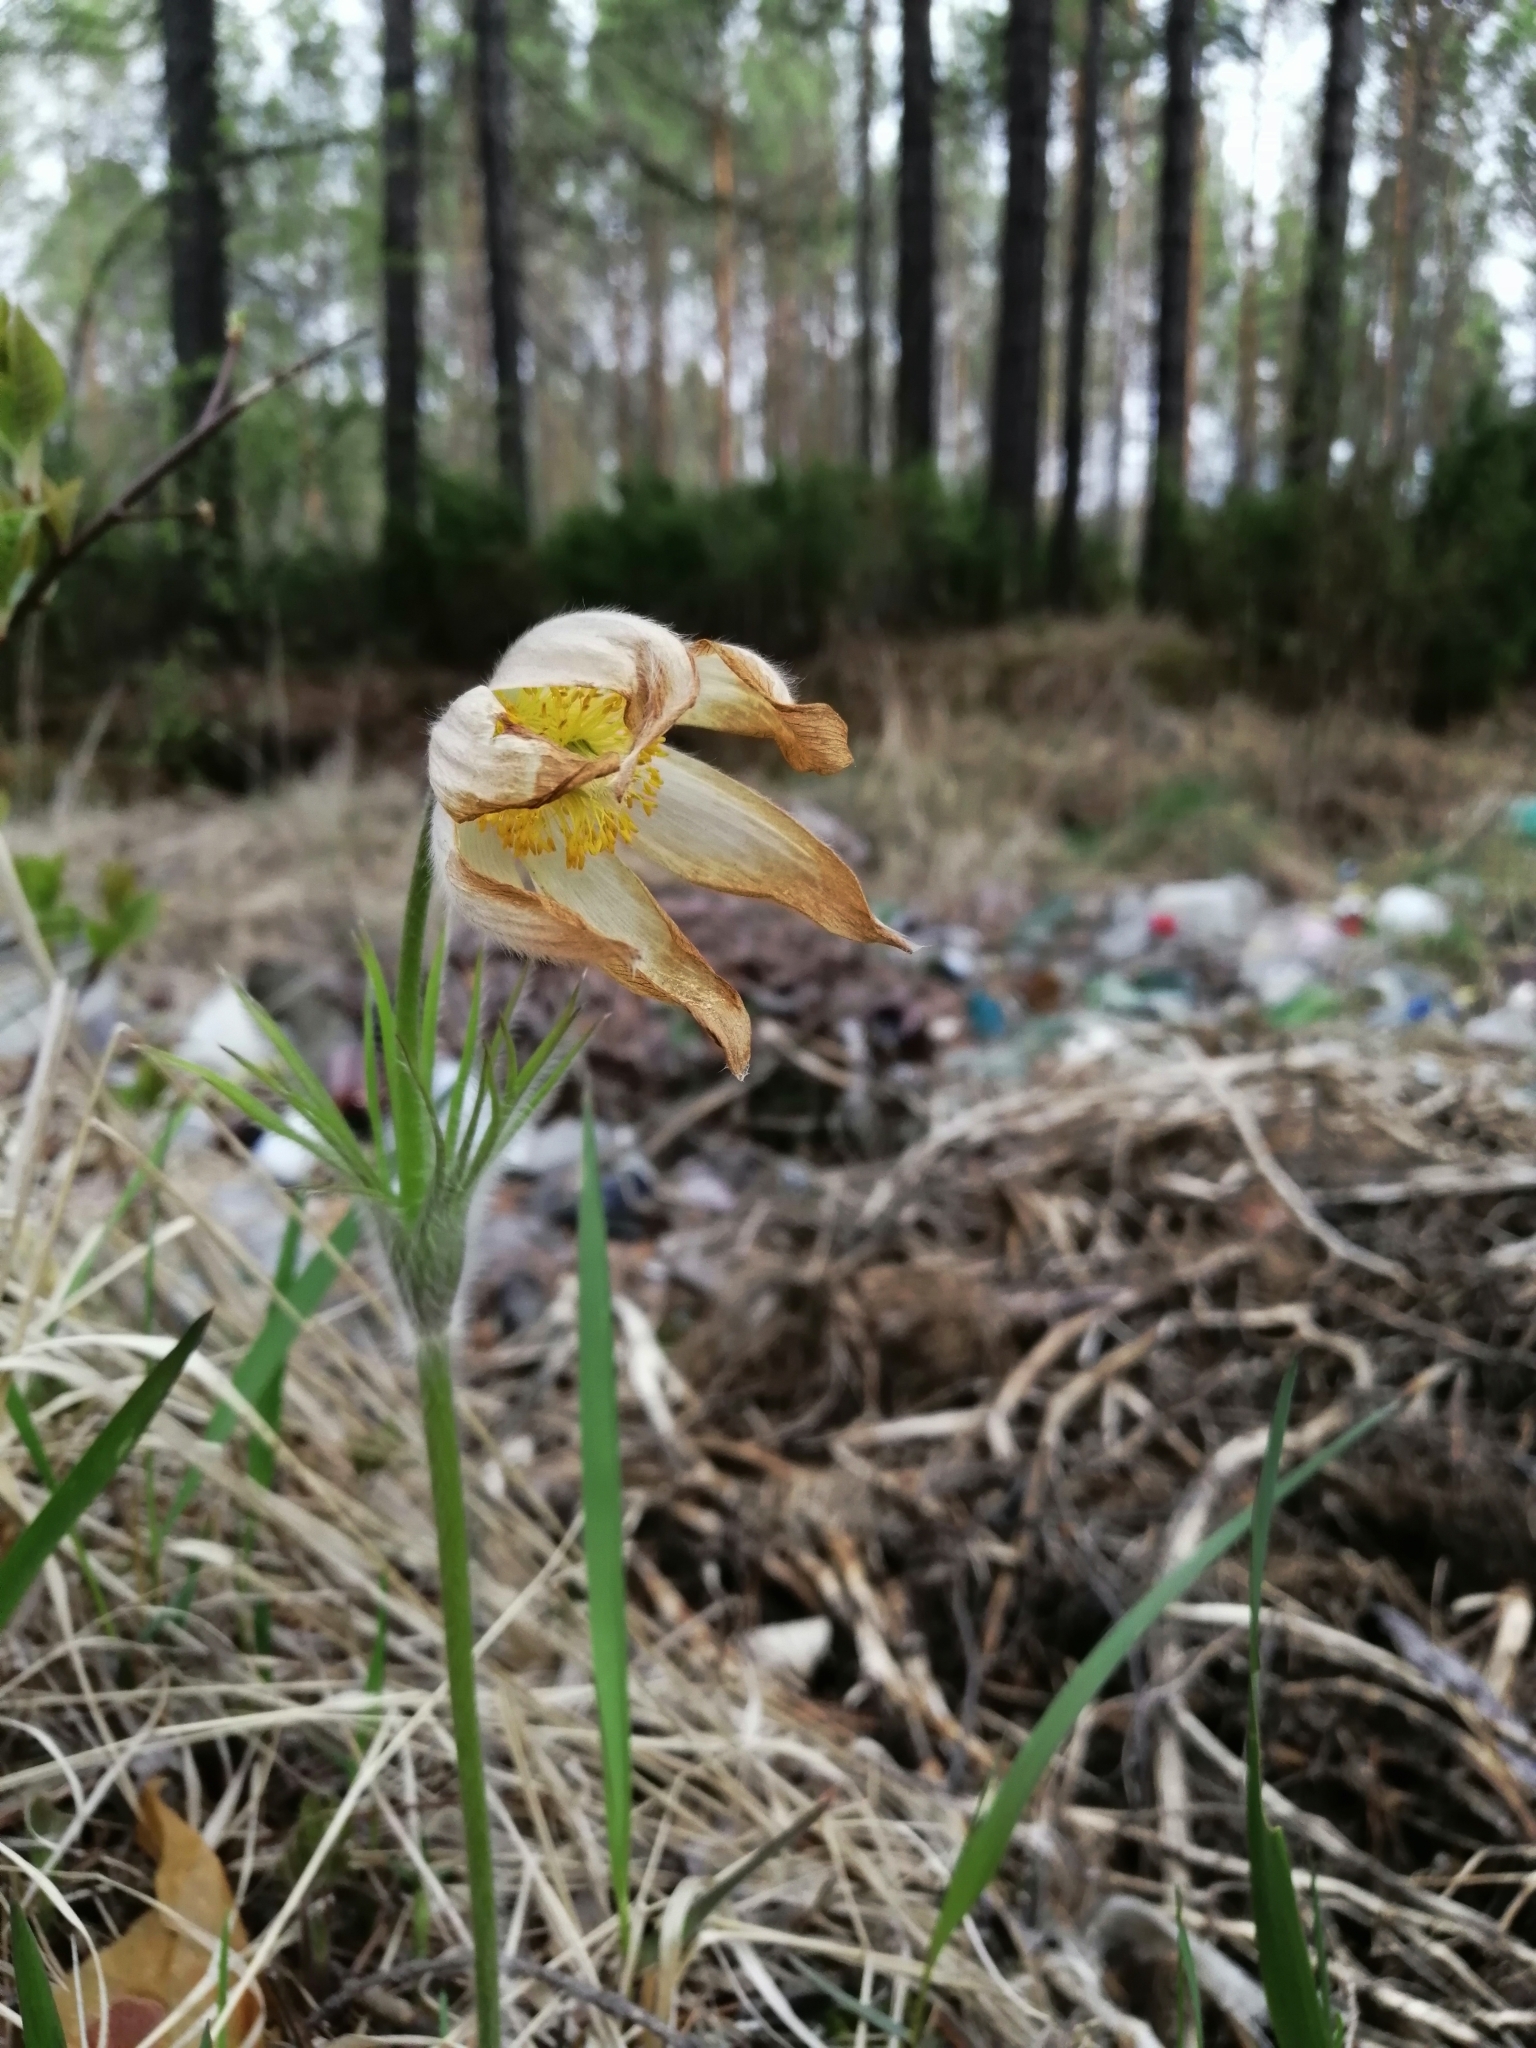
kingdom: Plantae
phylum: Tracheophyta
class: Magnoliopsida
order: Ranunculales
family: Ranunculaceae
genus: Pulsatilla
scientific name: Pulsatilla patens
